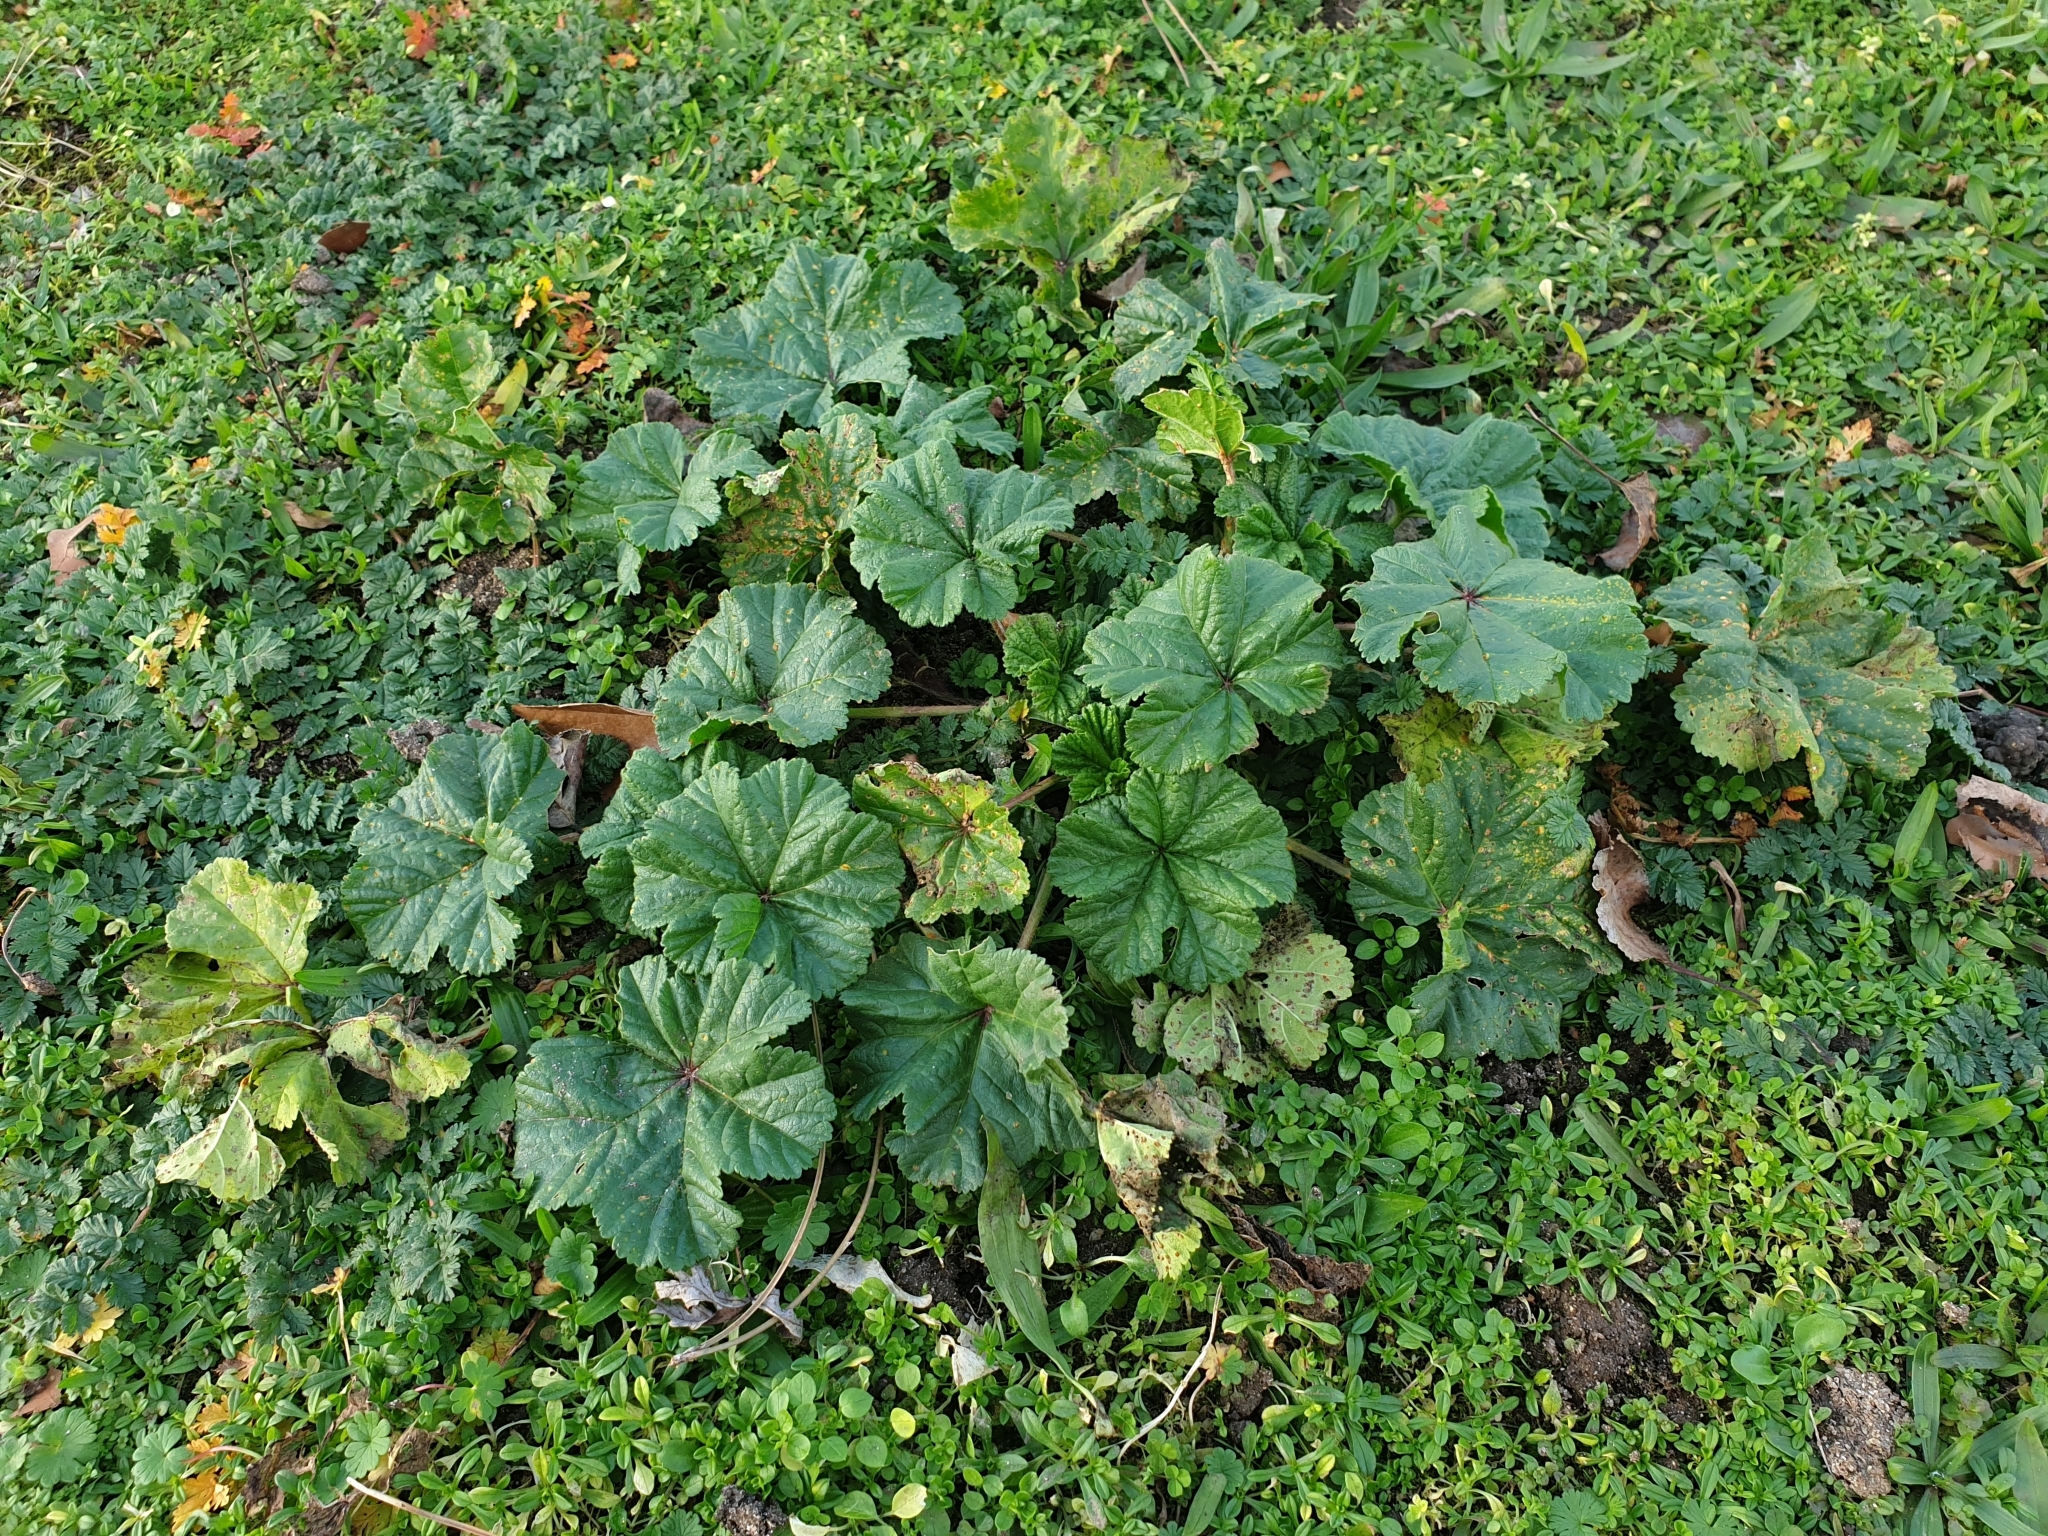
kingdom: Plantae
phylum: Tracheophyta
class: Magnoliopsida
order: Malvales
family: Malvaceae
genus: Malva
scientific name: Malva sylvestris
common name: Common mallow
